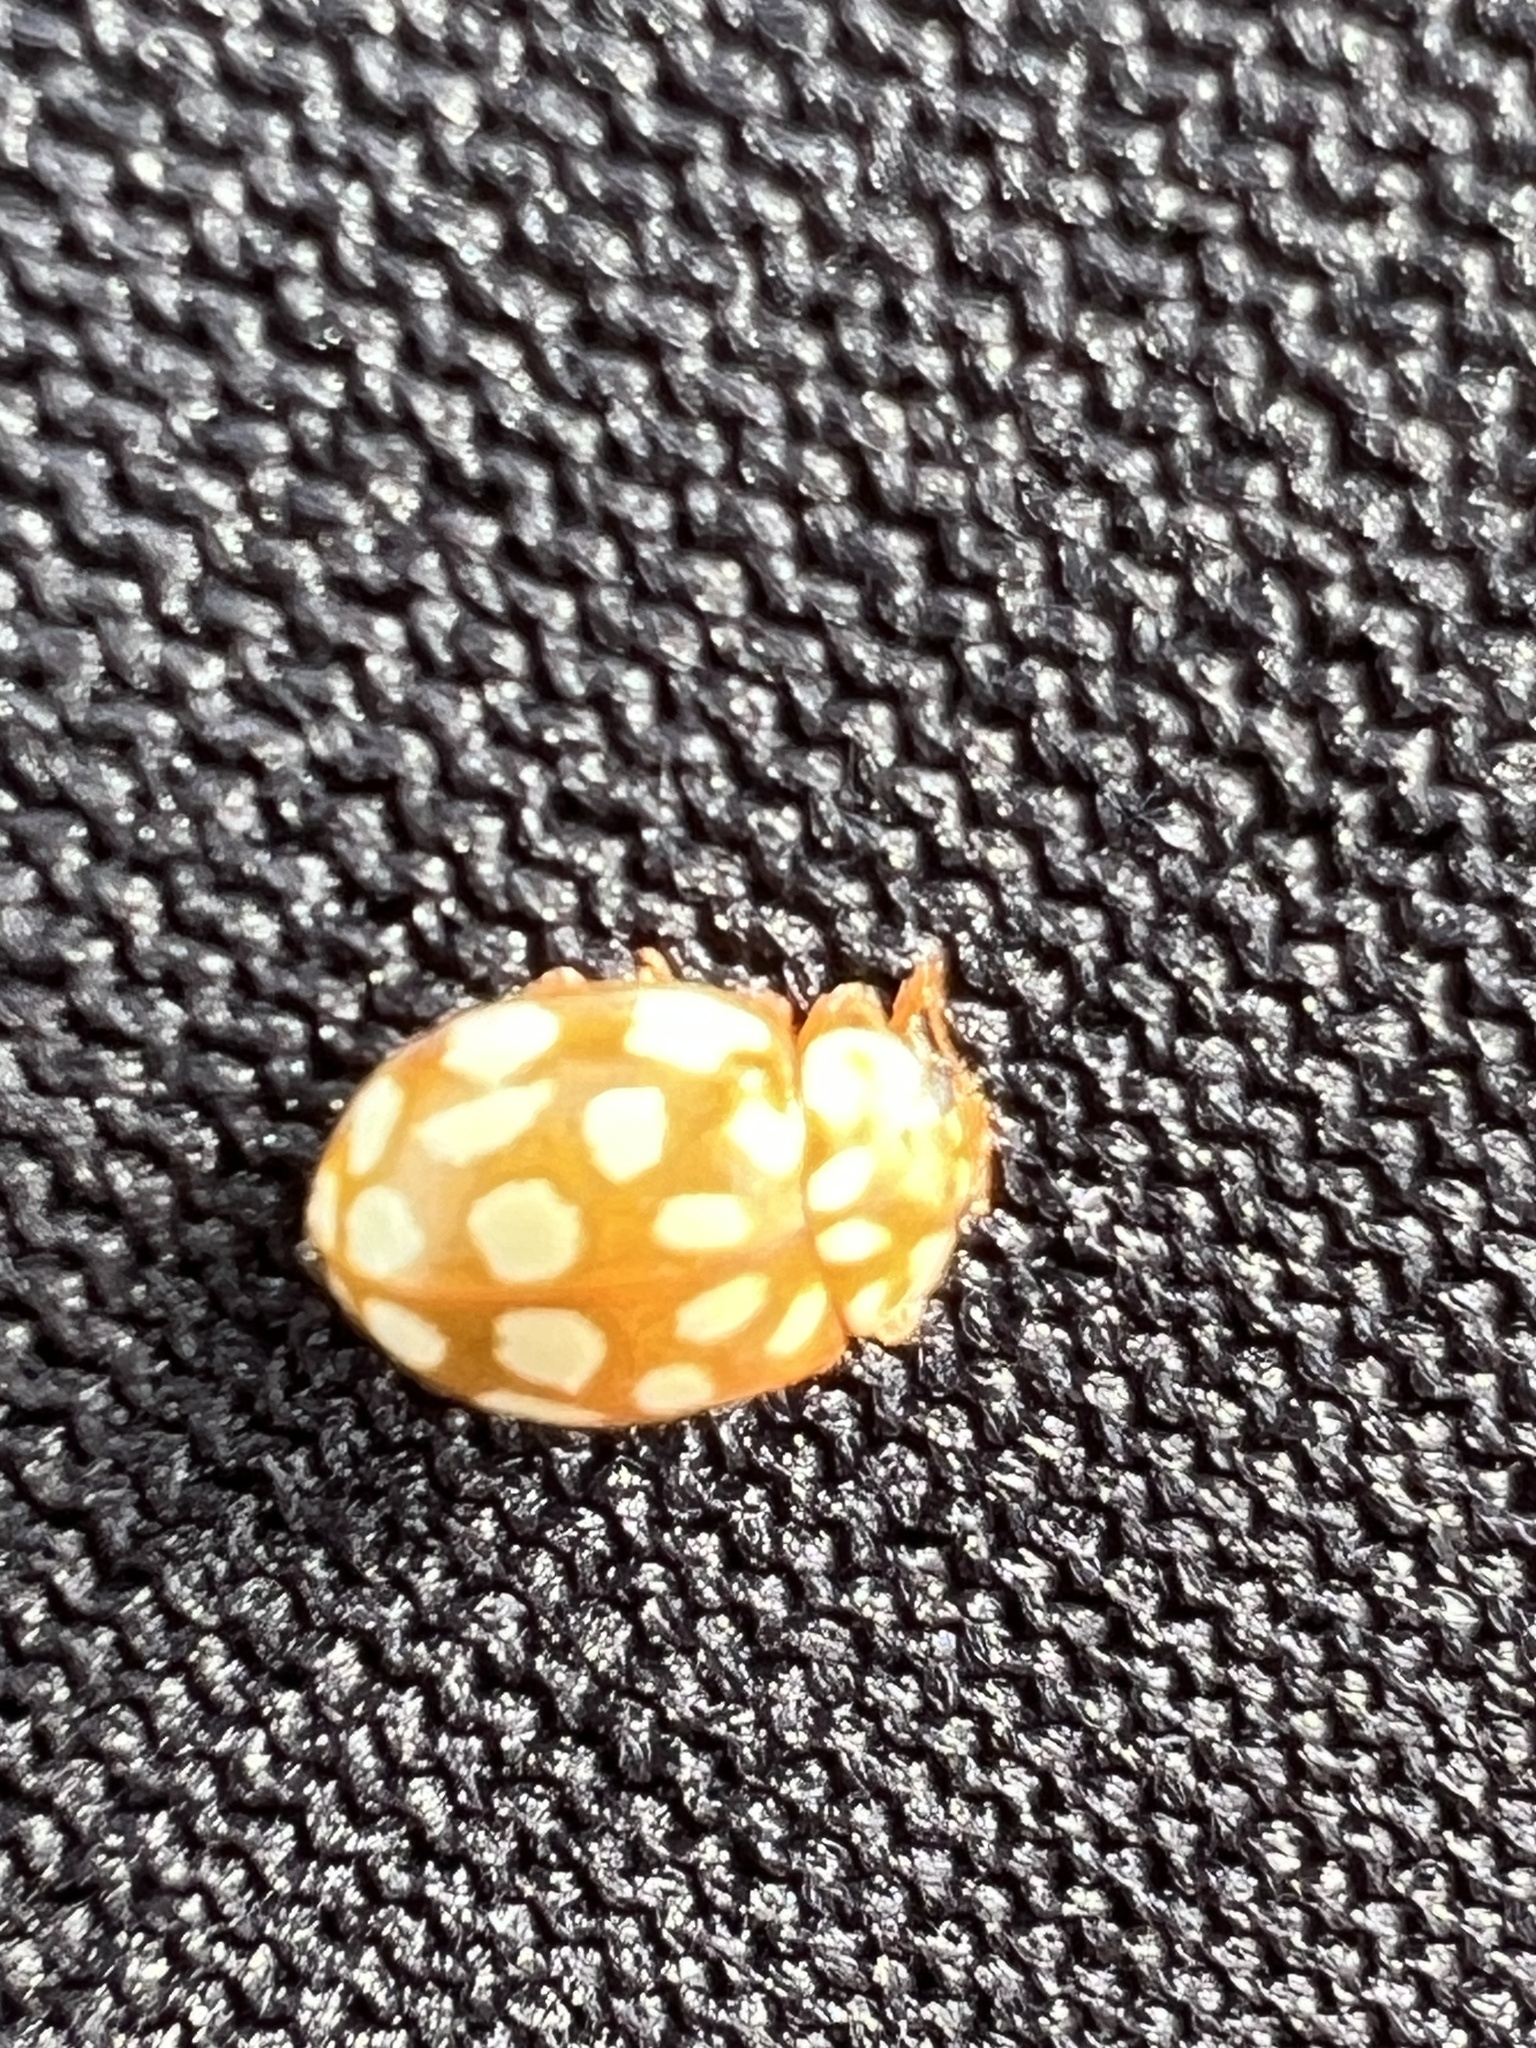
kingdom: Animalia
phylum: Arthropoda
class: Insecta
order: Coleoptera
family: Coccinellidae
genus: Sospita
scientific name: Sospita vigintiguttata
